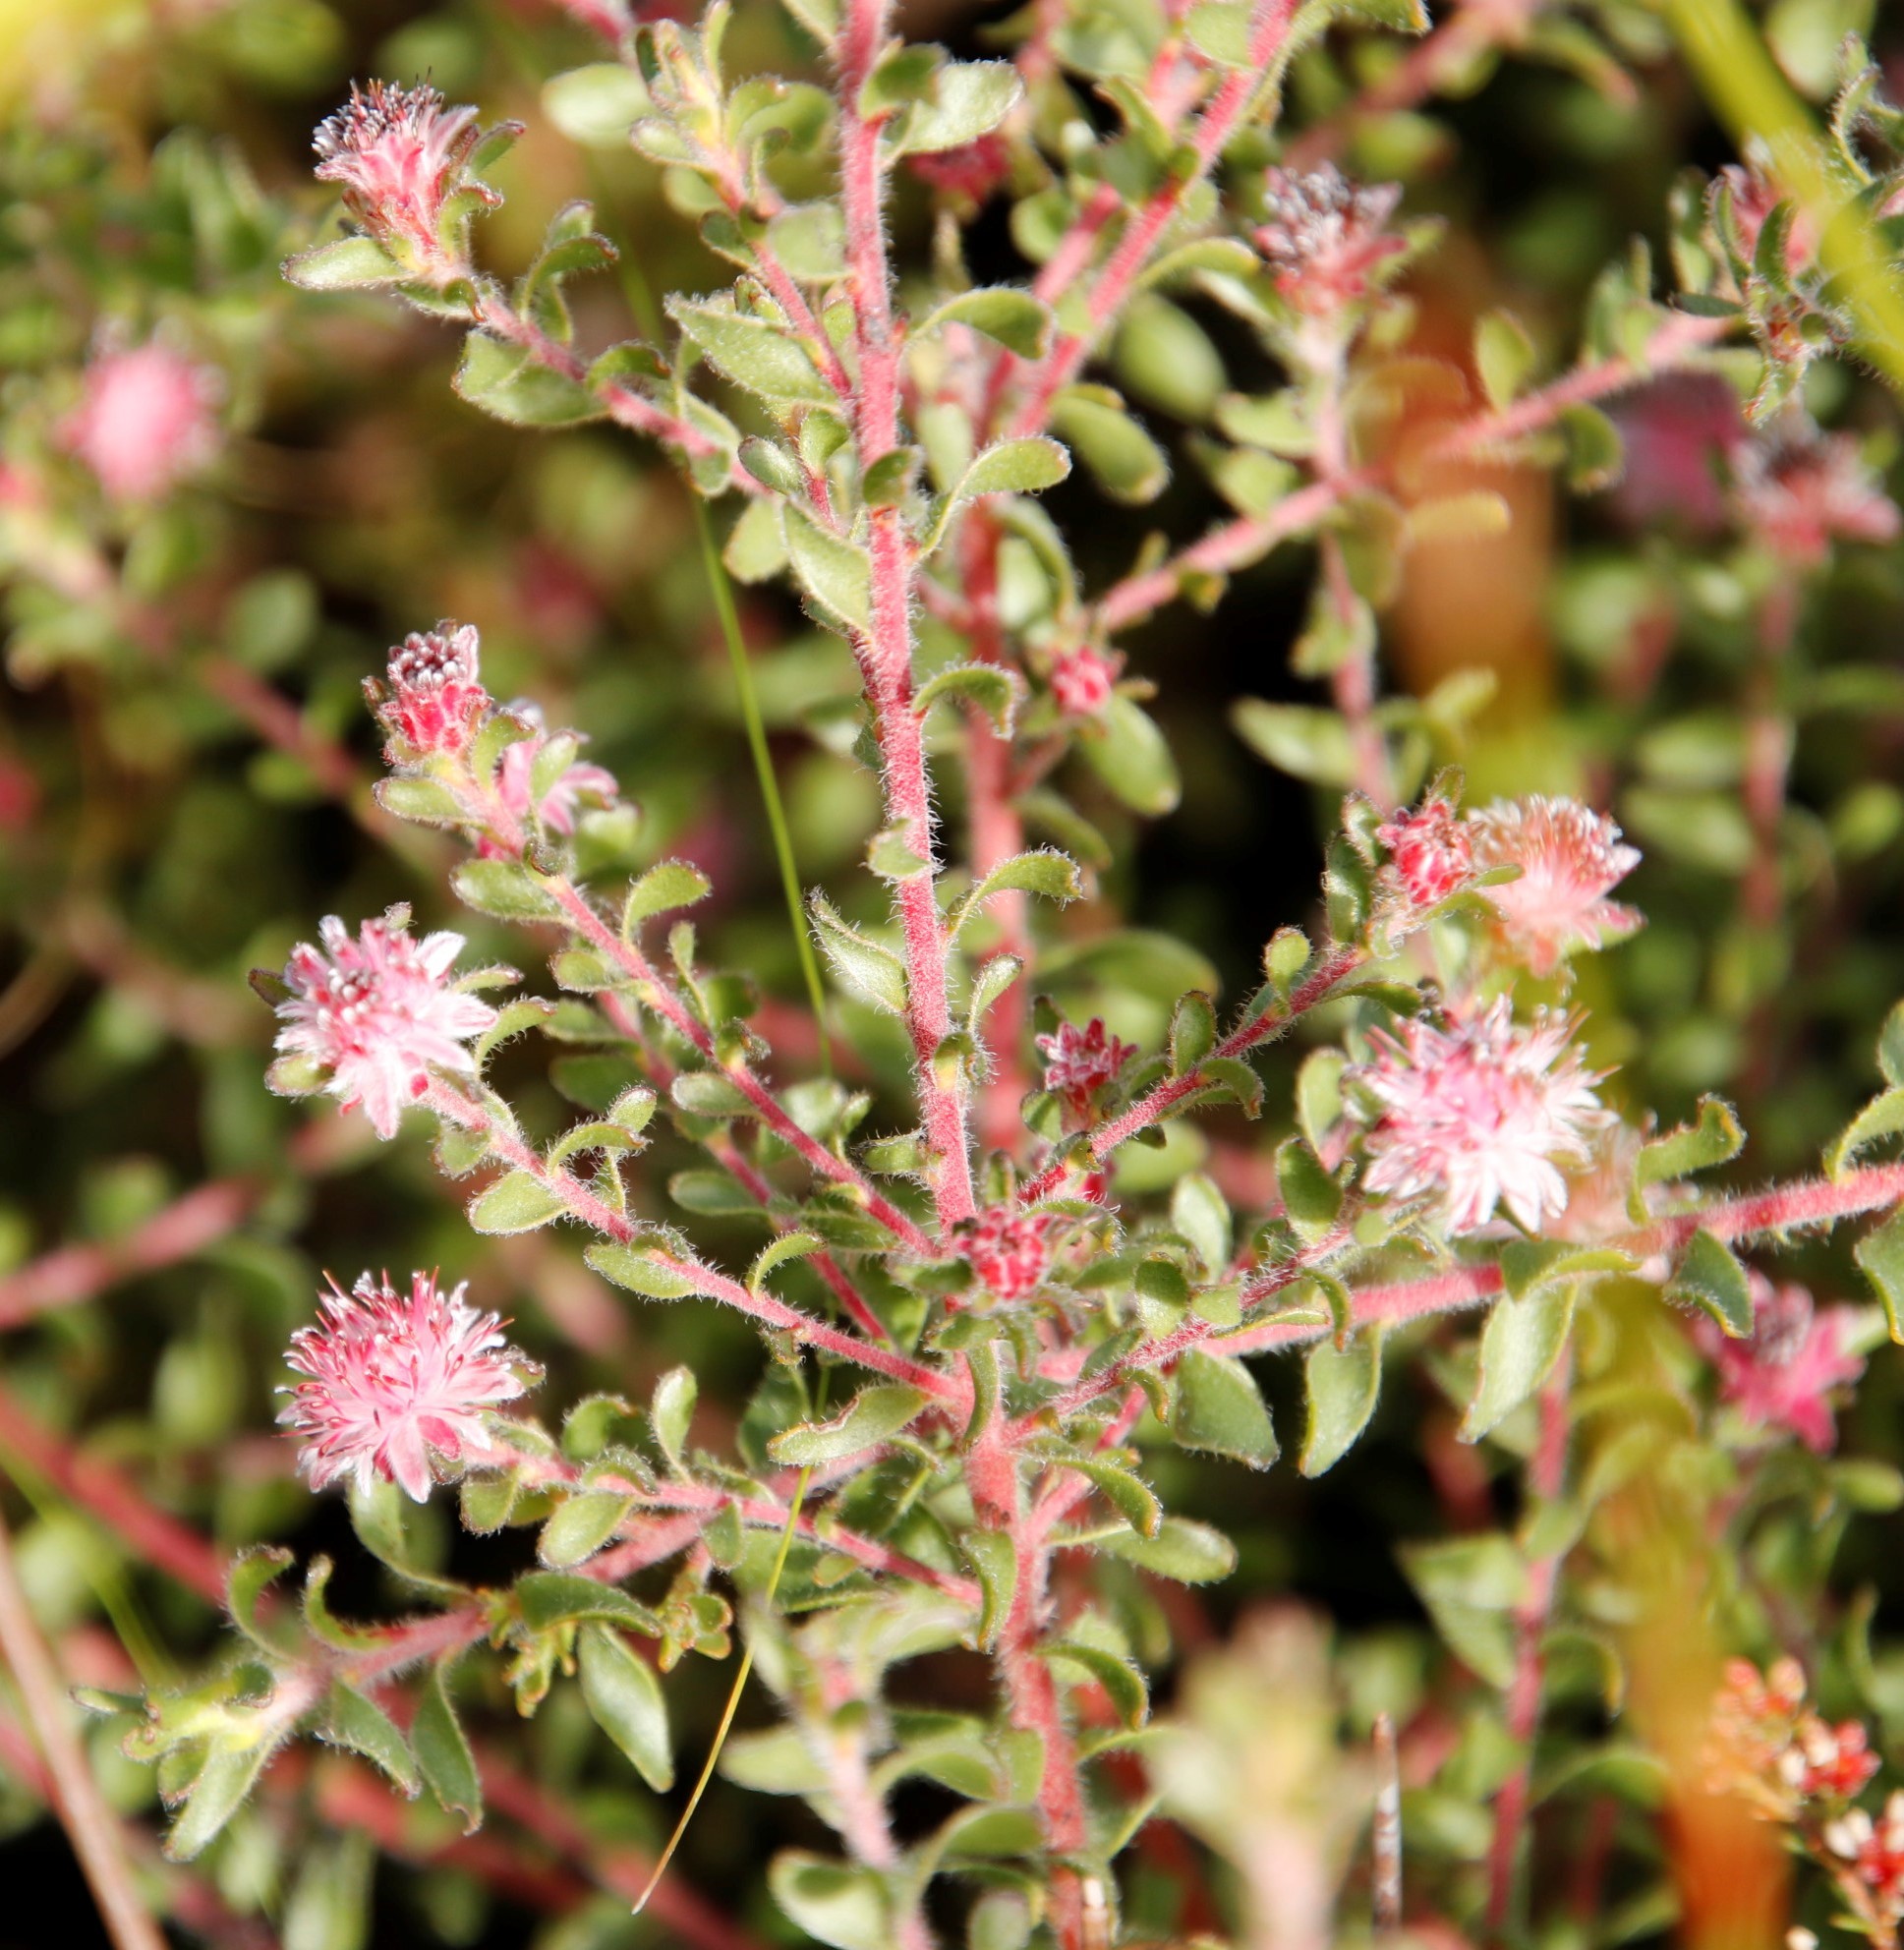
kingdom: Plantae
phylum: Tracheophyta
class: Magnoliopsida
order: Proteales
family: Proteaceae
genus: Diastella
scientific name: Diastella divaricata
